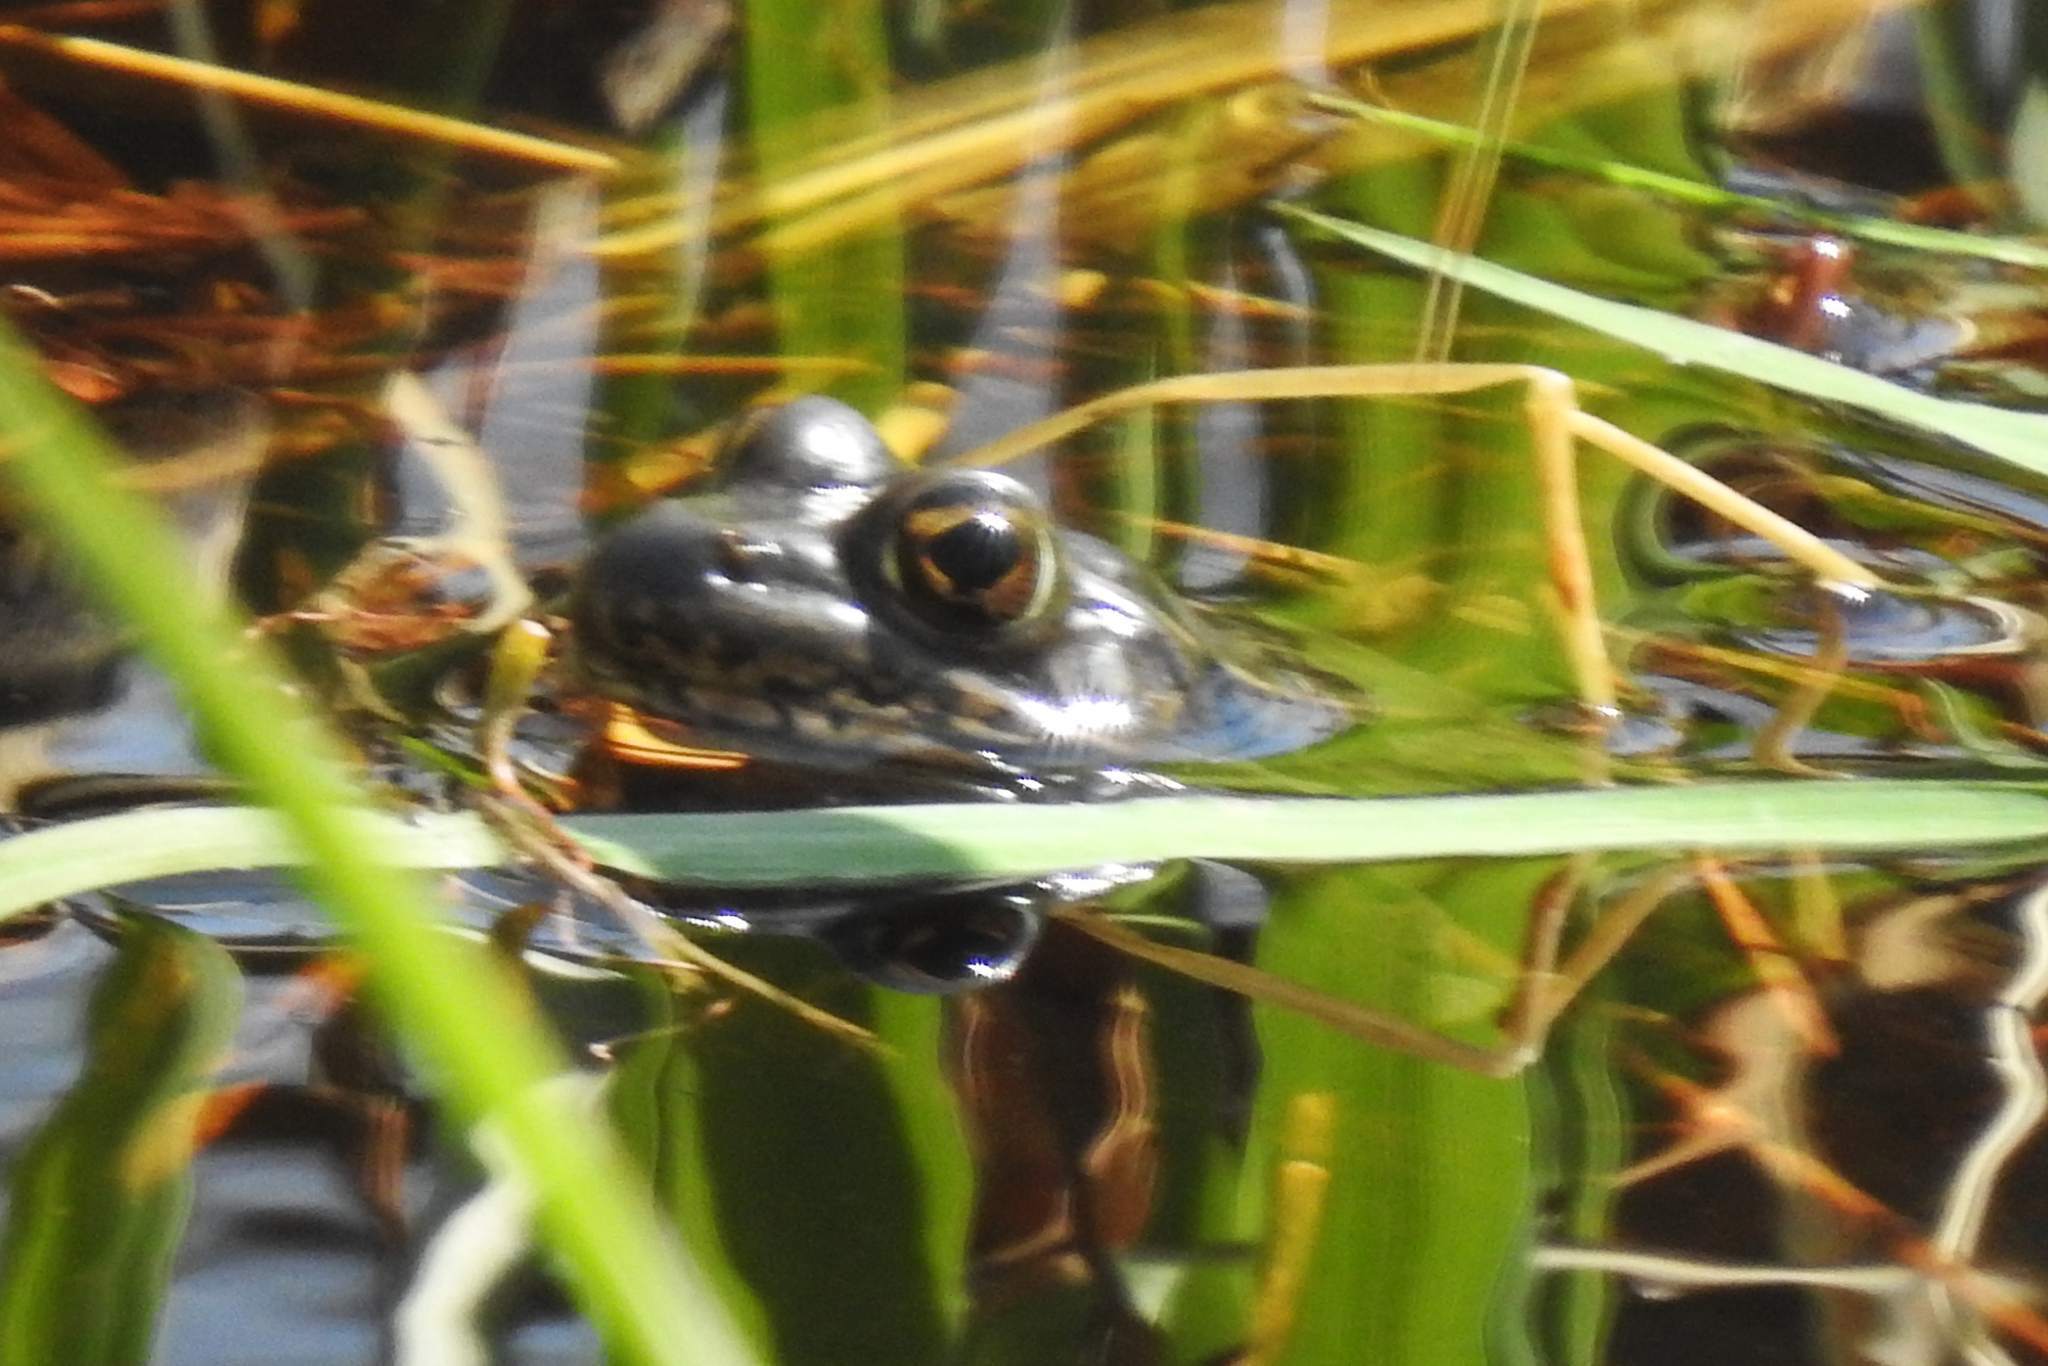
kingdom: Animalia
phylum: Chordata
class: Amphibia
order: Anura
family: Ranidae
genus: Lithobates
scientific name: Lithobates catesbeianus
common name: American bullfrog
